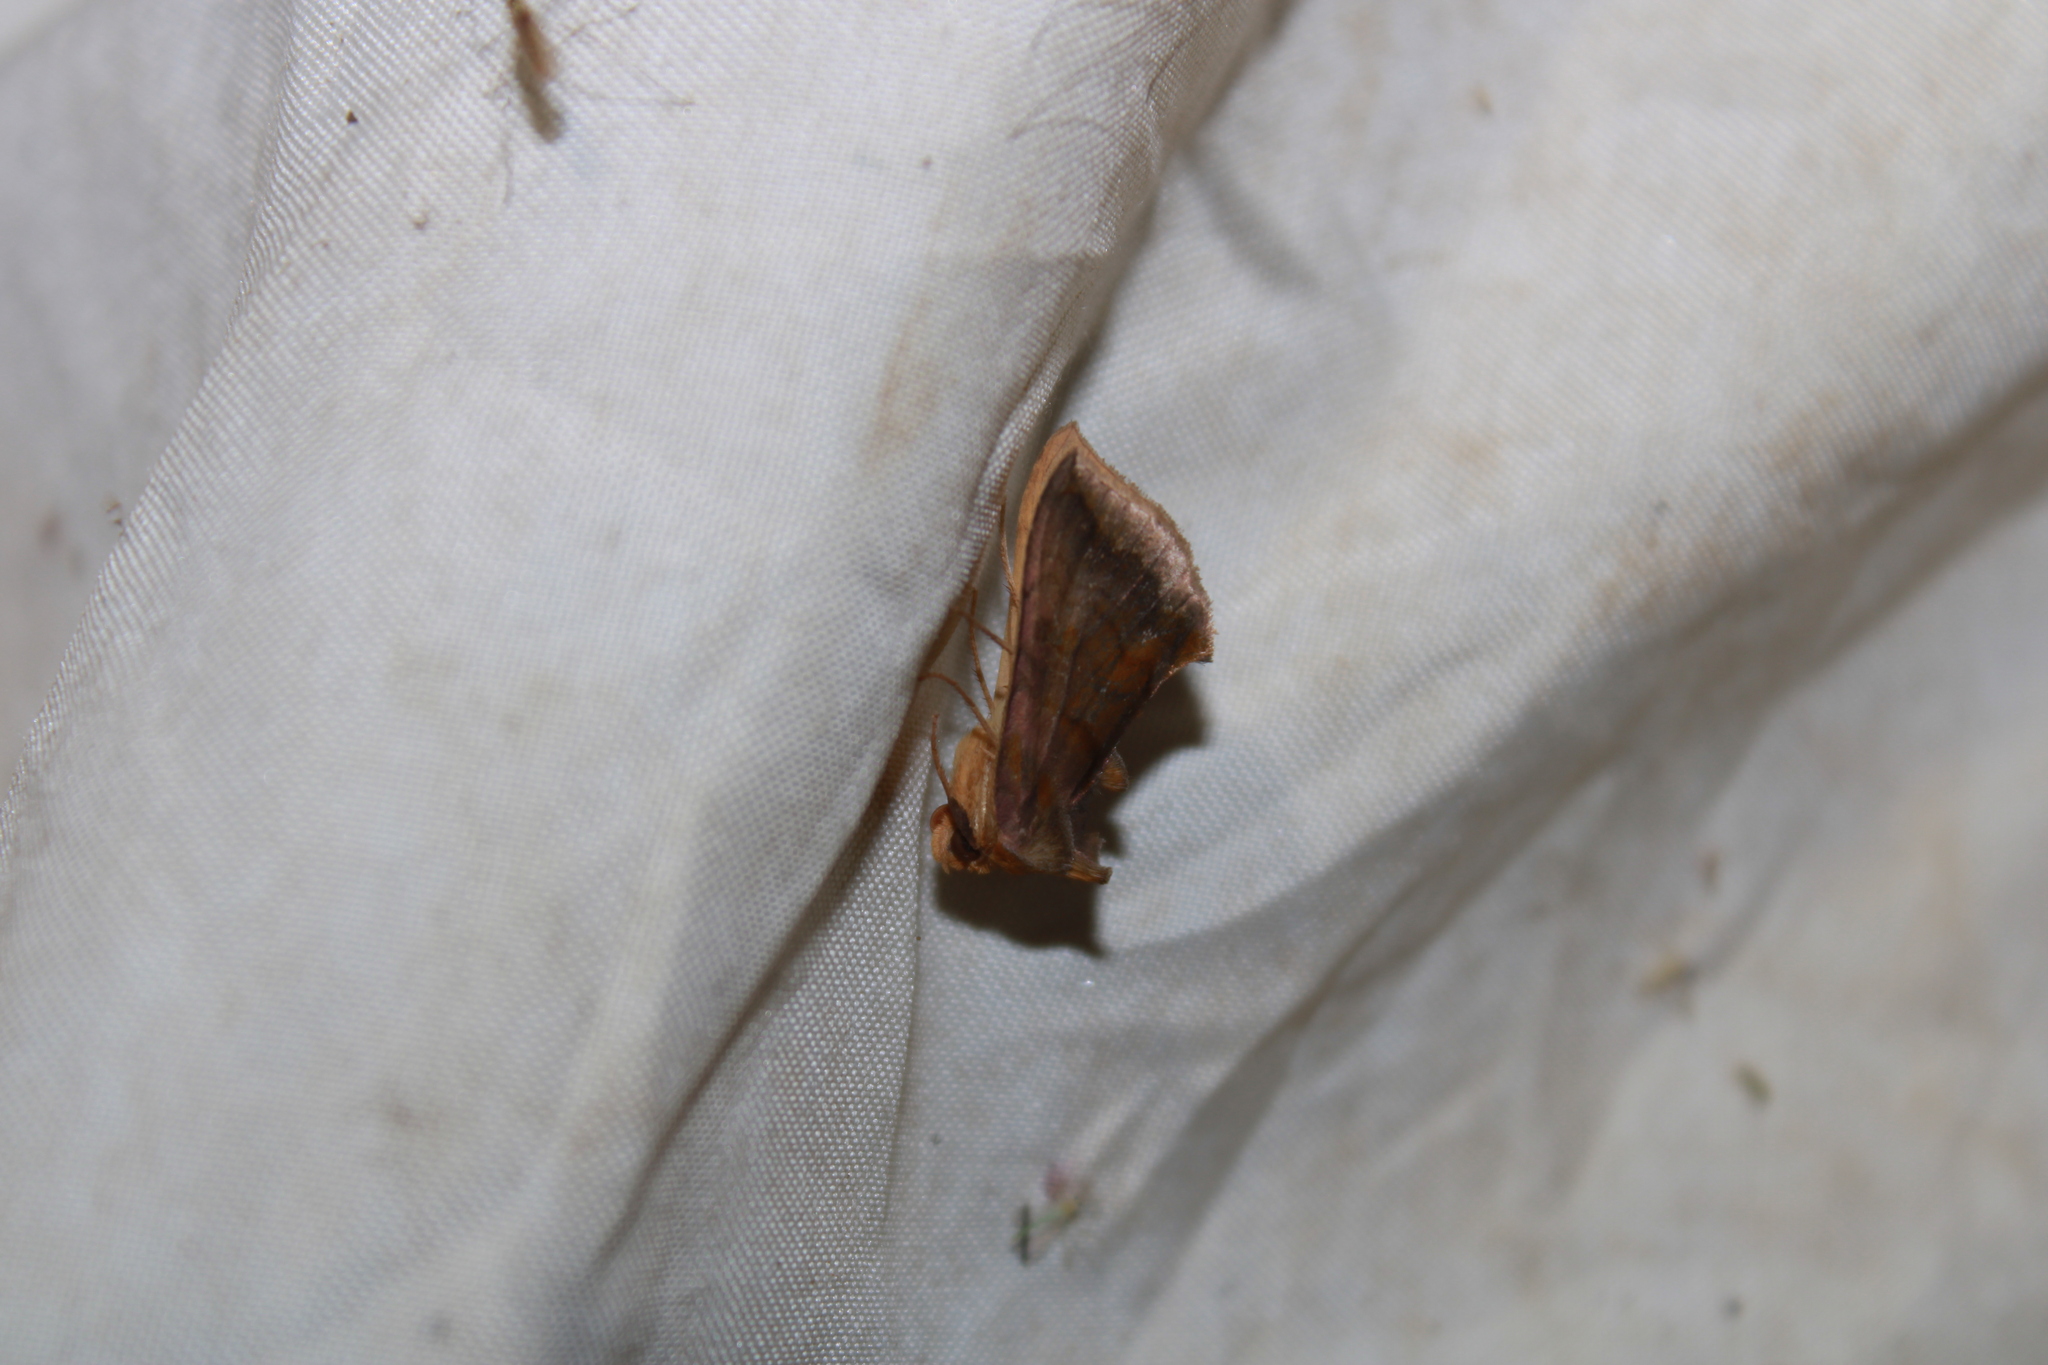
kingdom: Animalia
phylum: Arthropoda
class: Insecta
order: Lepidoptera
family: Noctuidae
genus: Allagrapha
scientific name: Allagrapha aerea
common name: Unspotted looper moth
